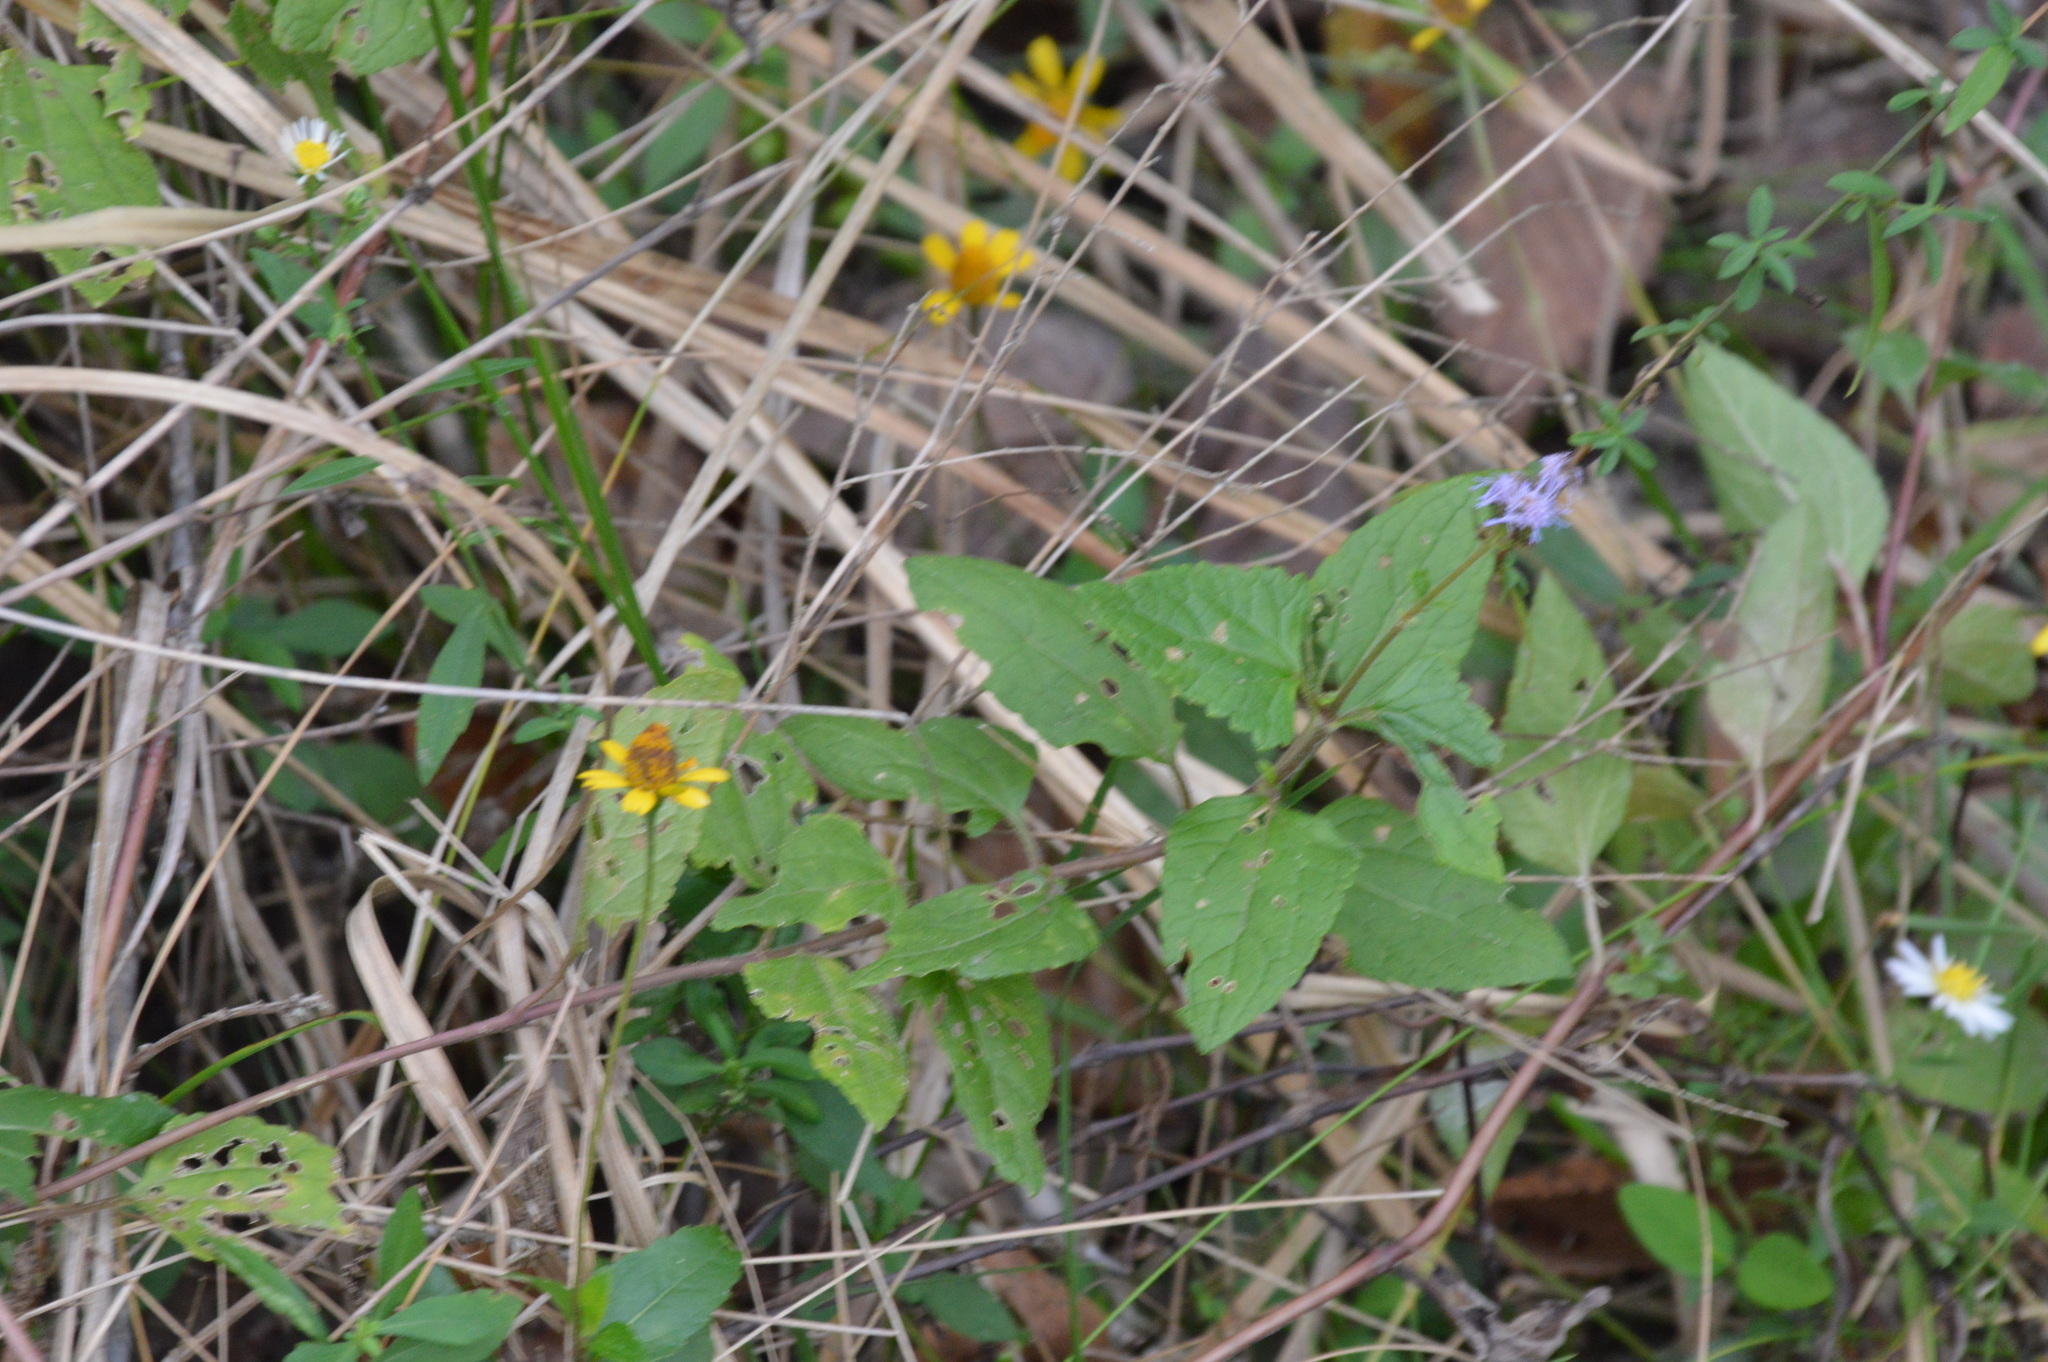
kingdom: Plantae
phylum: Tracheophyta
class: Magnoliopsida
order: Asterales
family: Asteraceae
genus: Conoclinium
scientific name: Conoclinium coelestinum
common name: Blue mistflower
